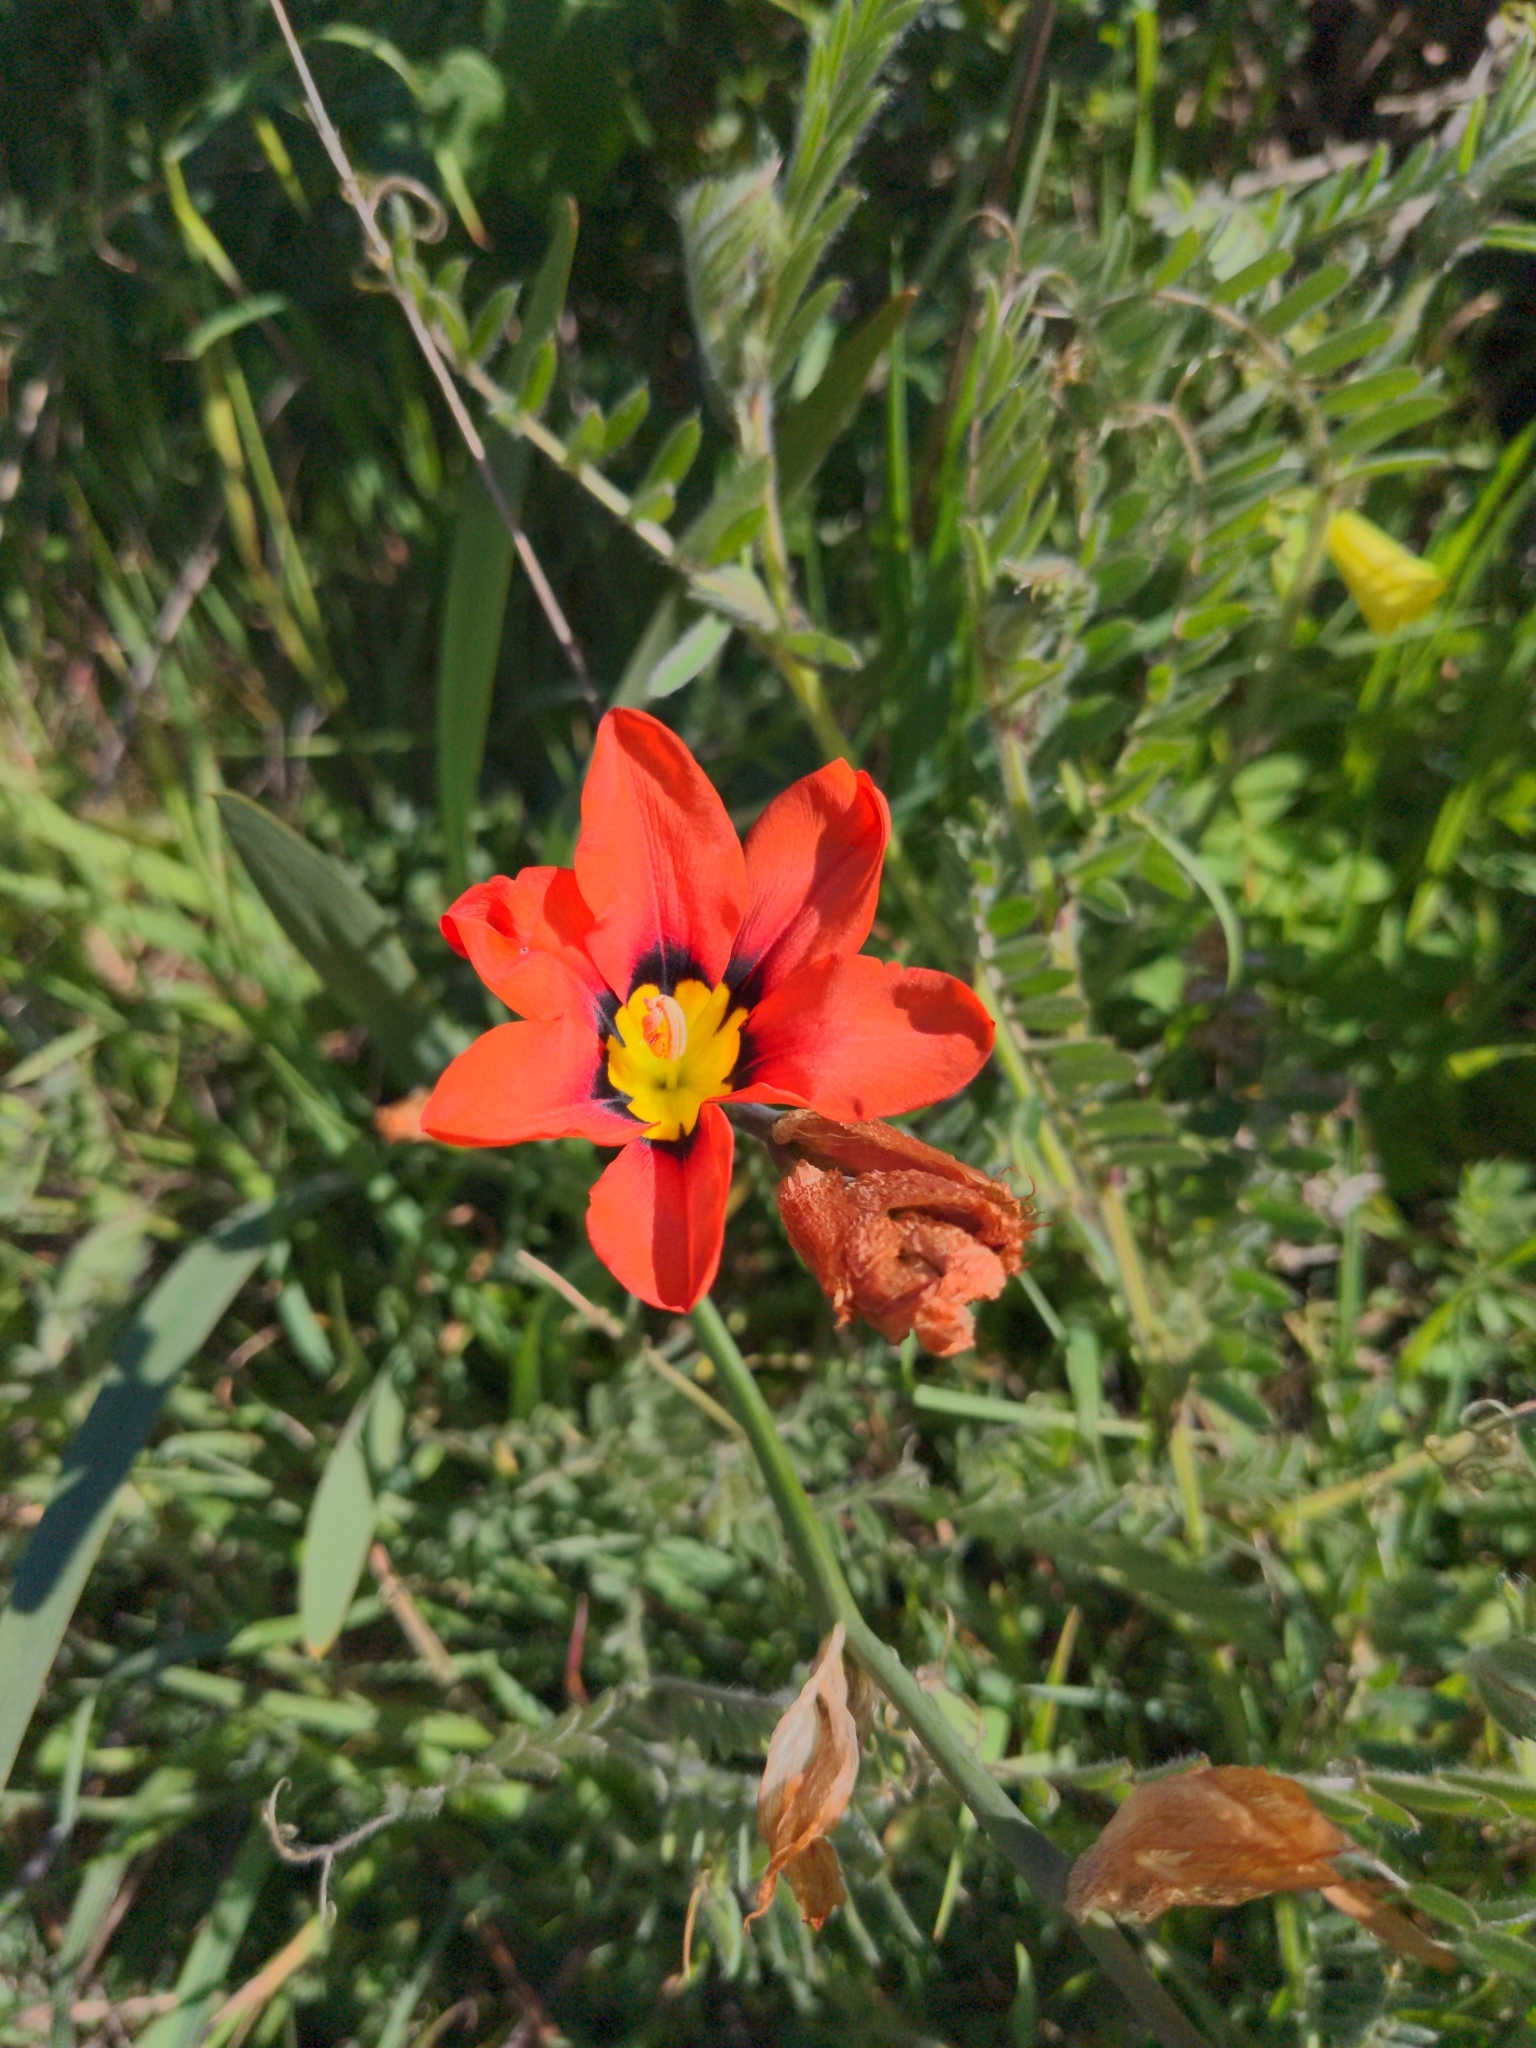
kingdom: Plantae
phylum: Tracheophyta
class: Liliopsida
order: Asparagales
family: Iridaceae
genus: Sparaxis
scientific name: Sparaxis tricolor
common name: Wandflower
